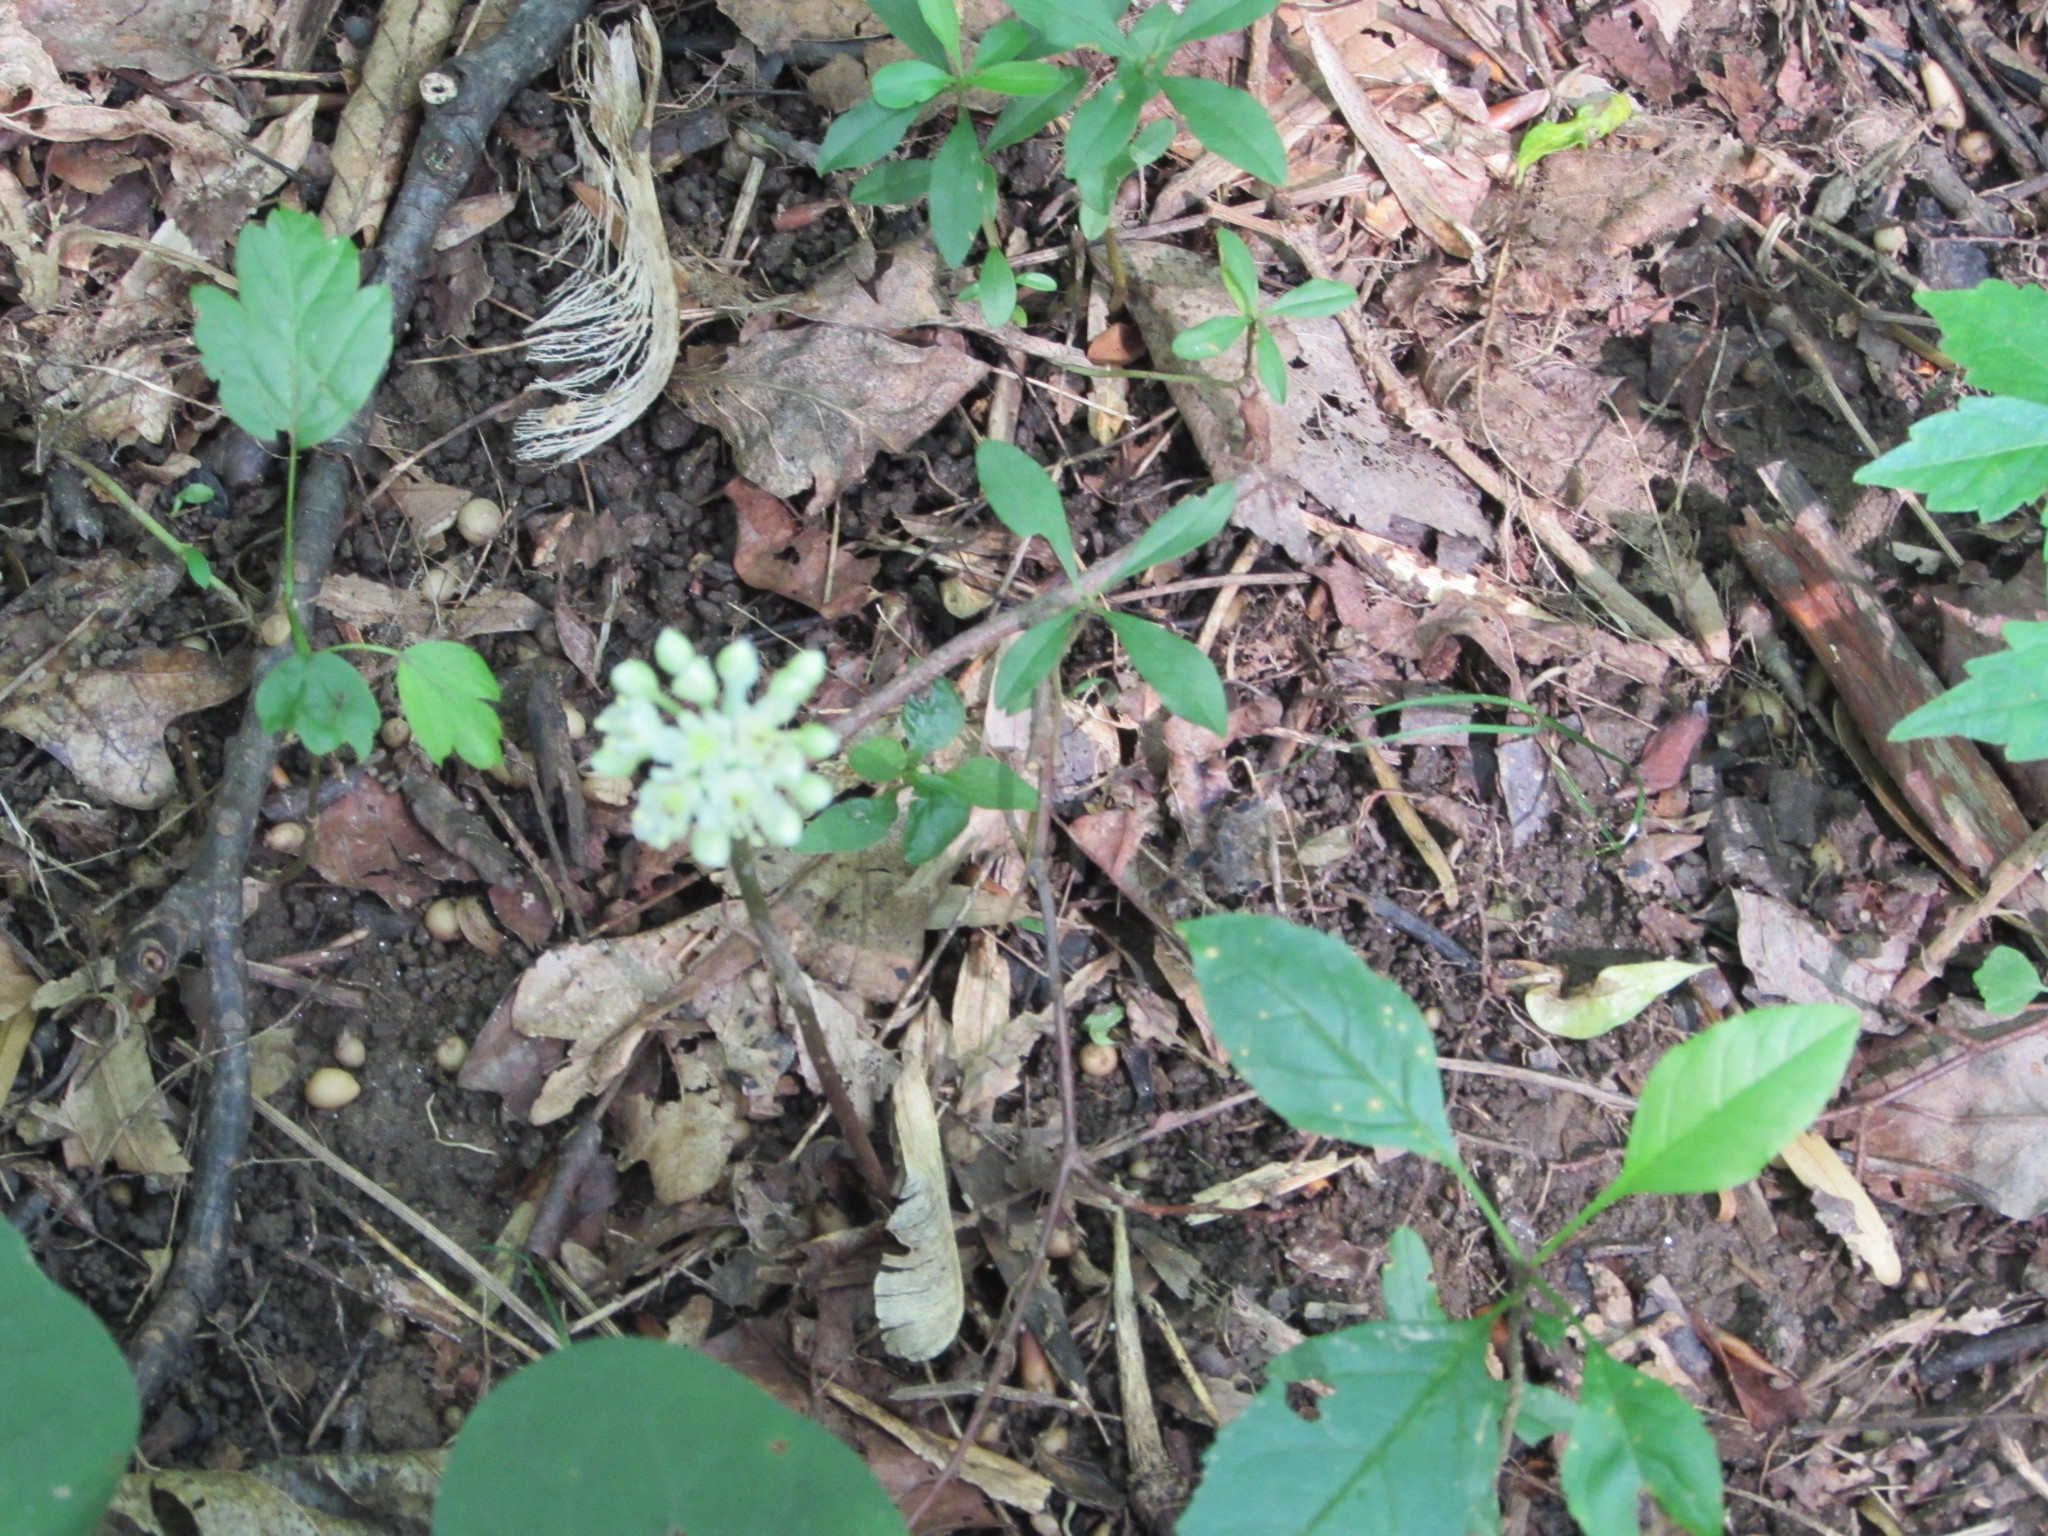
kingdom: Plantae
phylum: Tracheophyta
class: Liliopsida
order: Asparagales
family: Amaryllidaceae
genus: Allium
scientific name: Allium tricoccum
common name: Ramp
